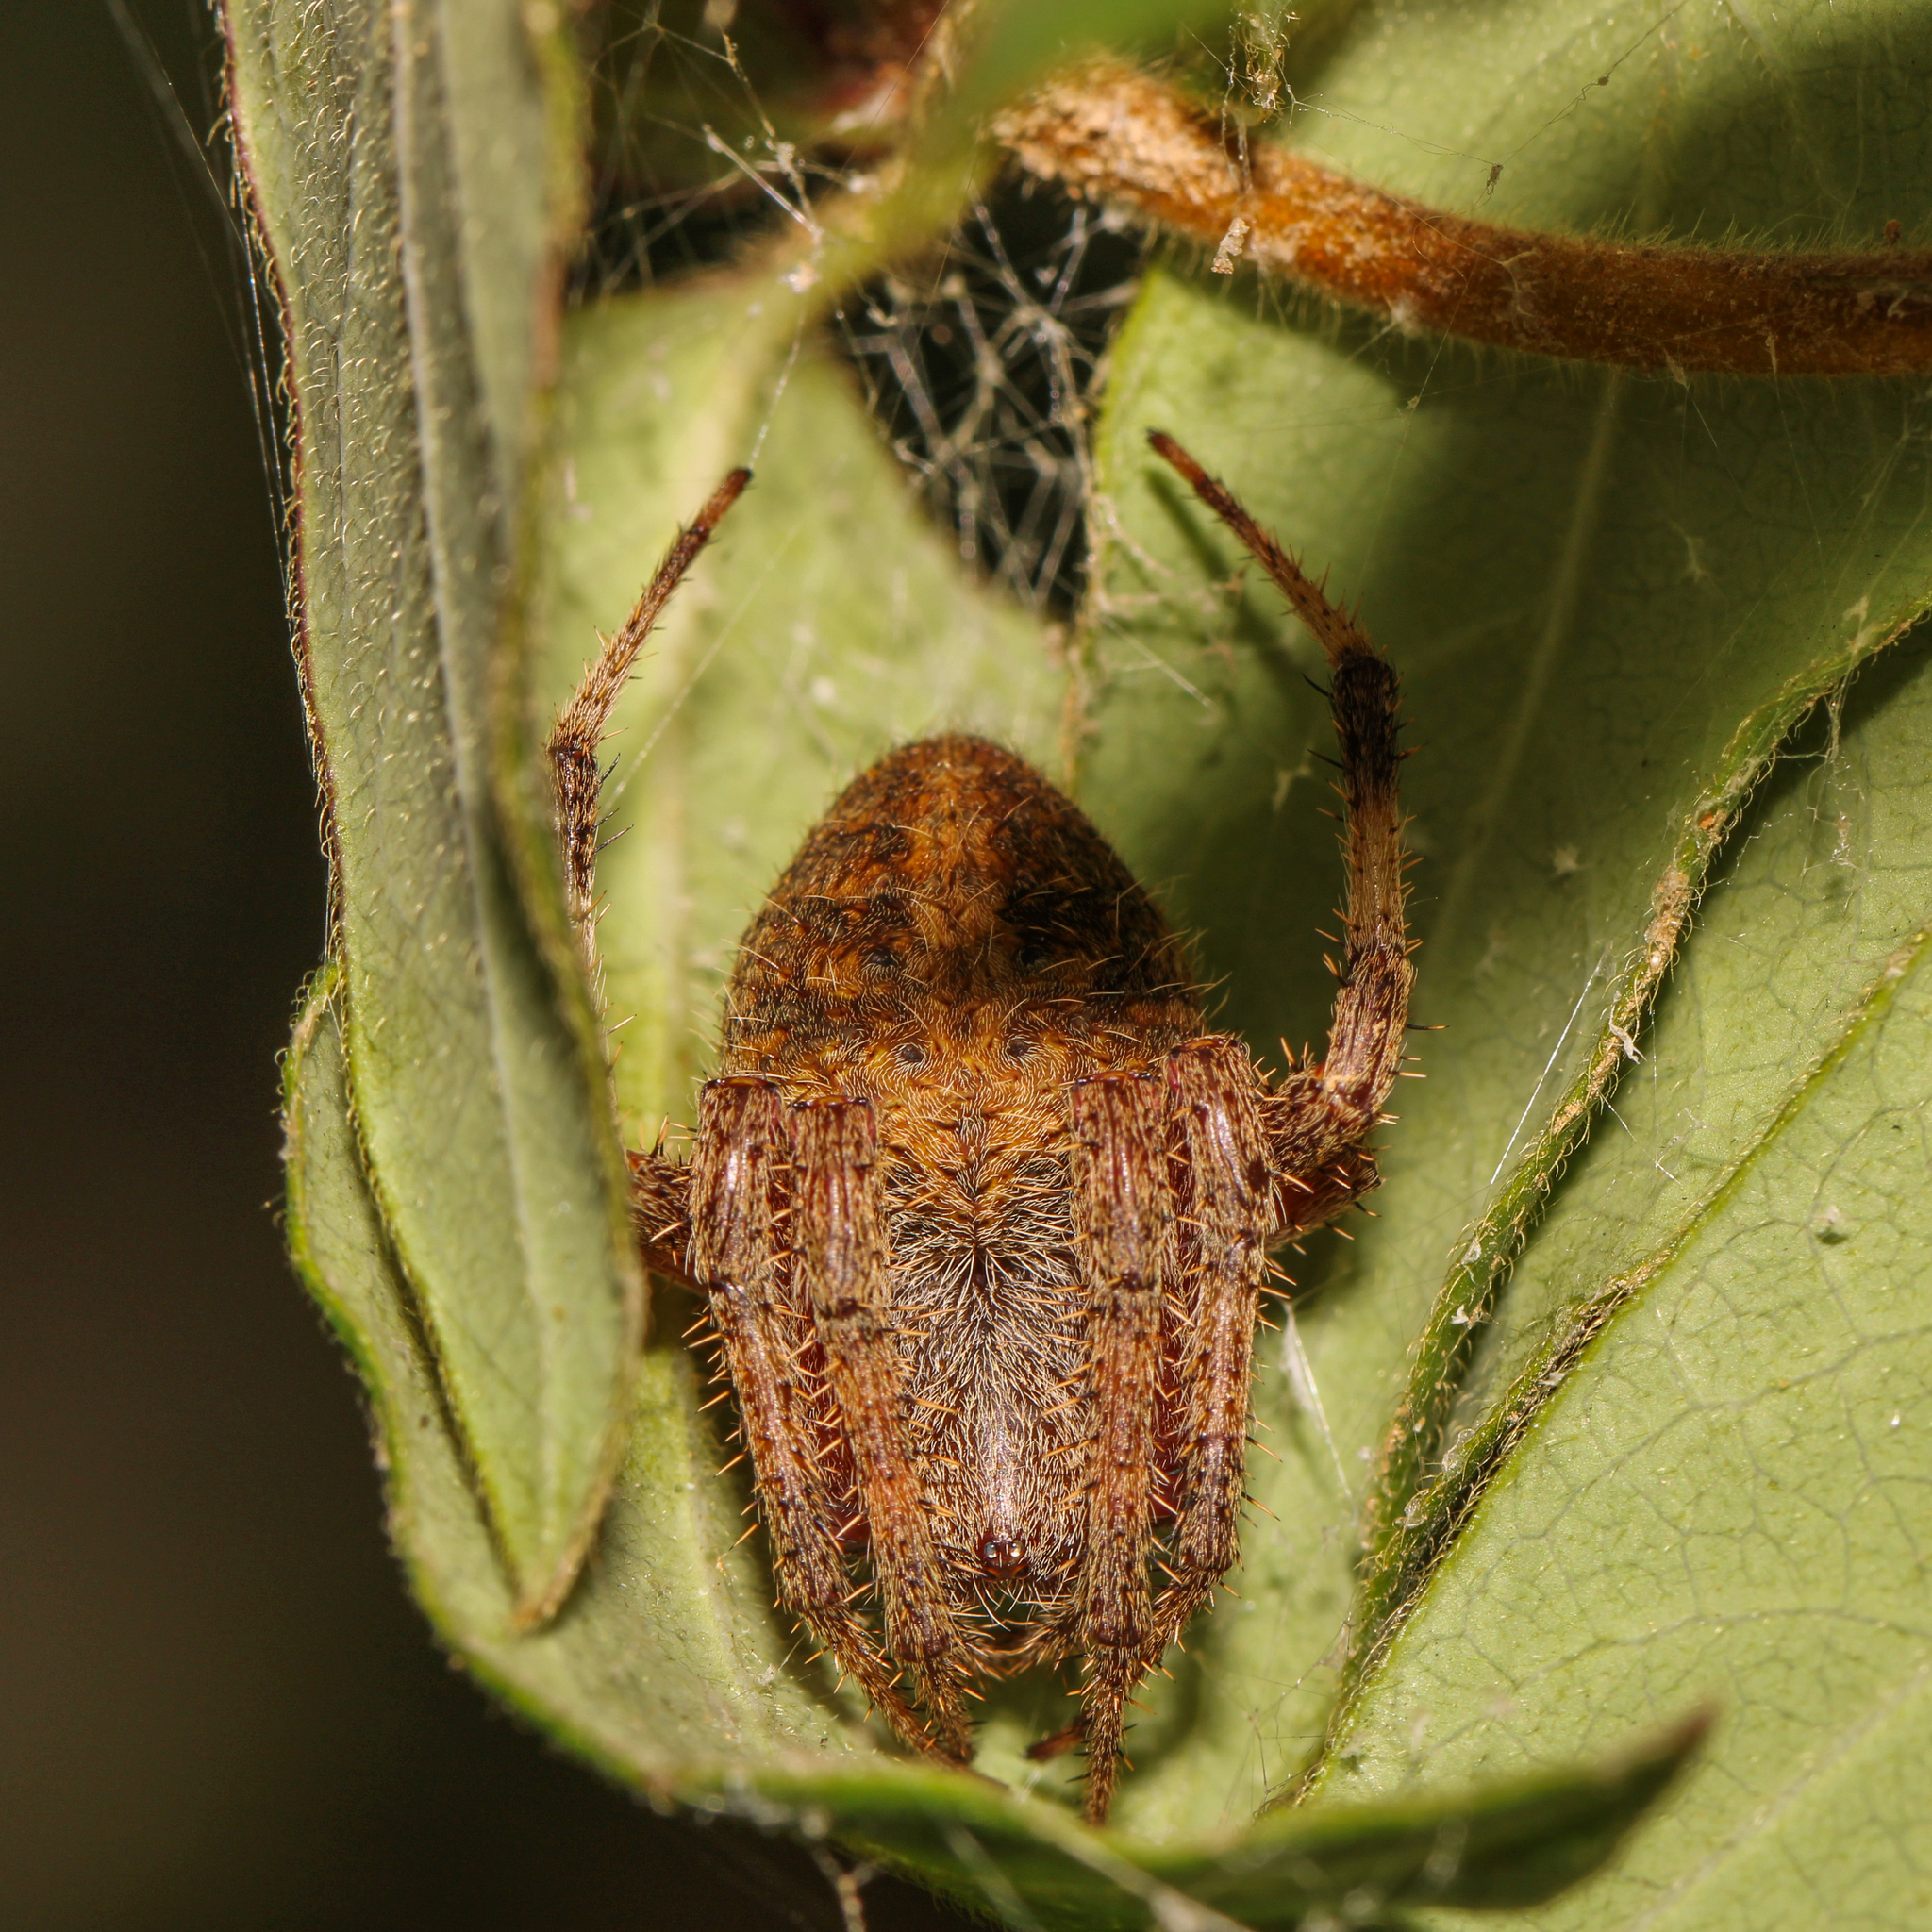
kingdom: Animalia
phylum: Arthropoda
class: Arachnida
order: Araneae
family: Araneidae
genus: Neoscona
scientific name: Neoscona crucifera
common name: Spotted orbweaver
